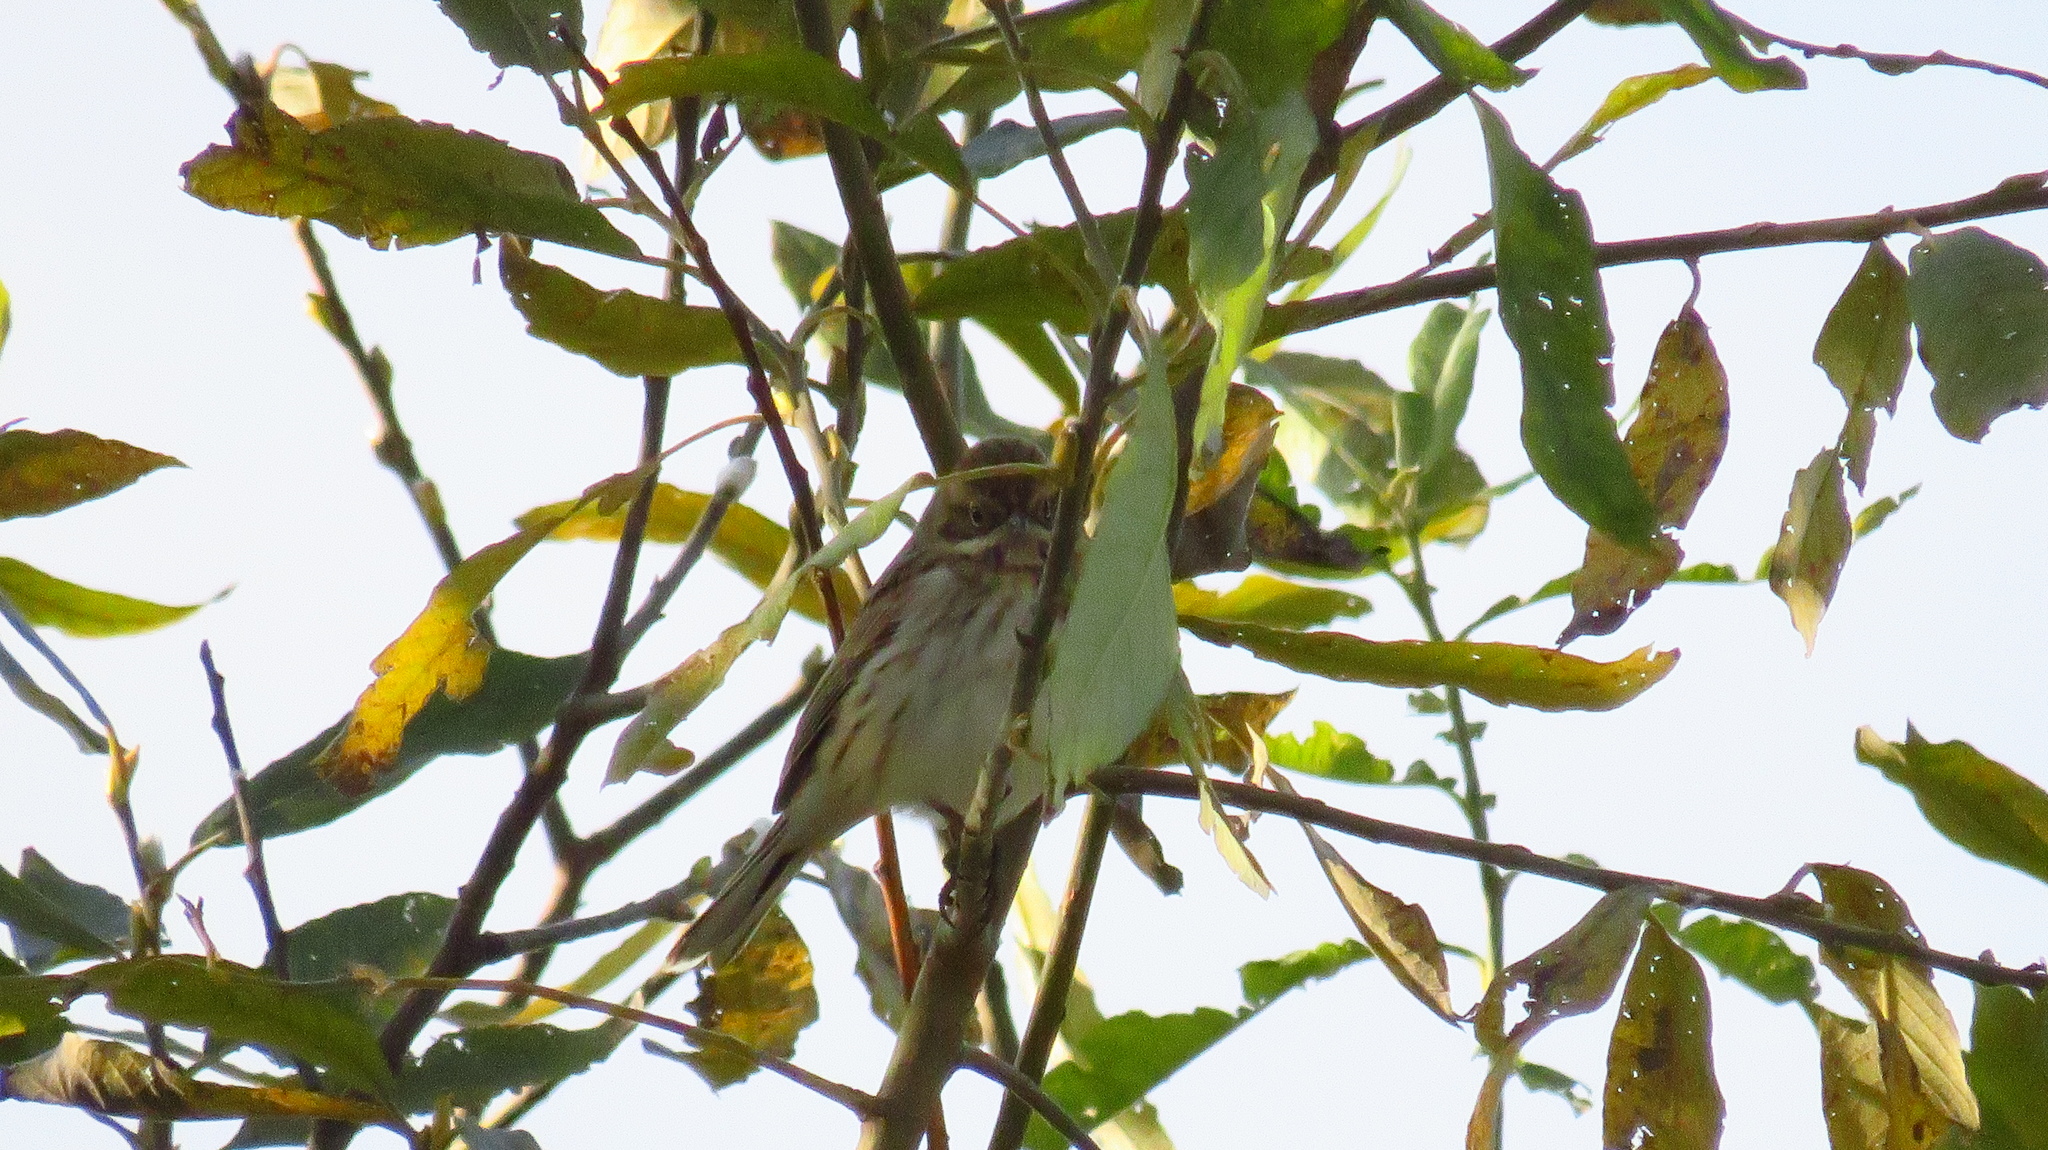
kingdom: Animalia
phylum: Chordata
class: Aves
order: Passeriformes
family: Emberizidae
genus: Emberiza
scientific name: Emberiza schoeniclus
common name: Reed bunting
